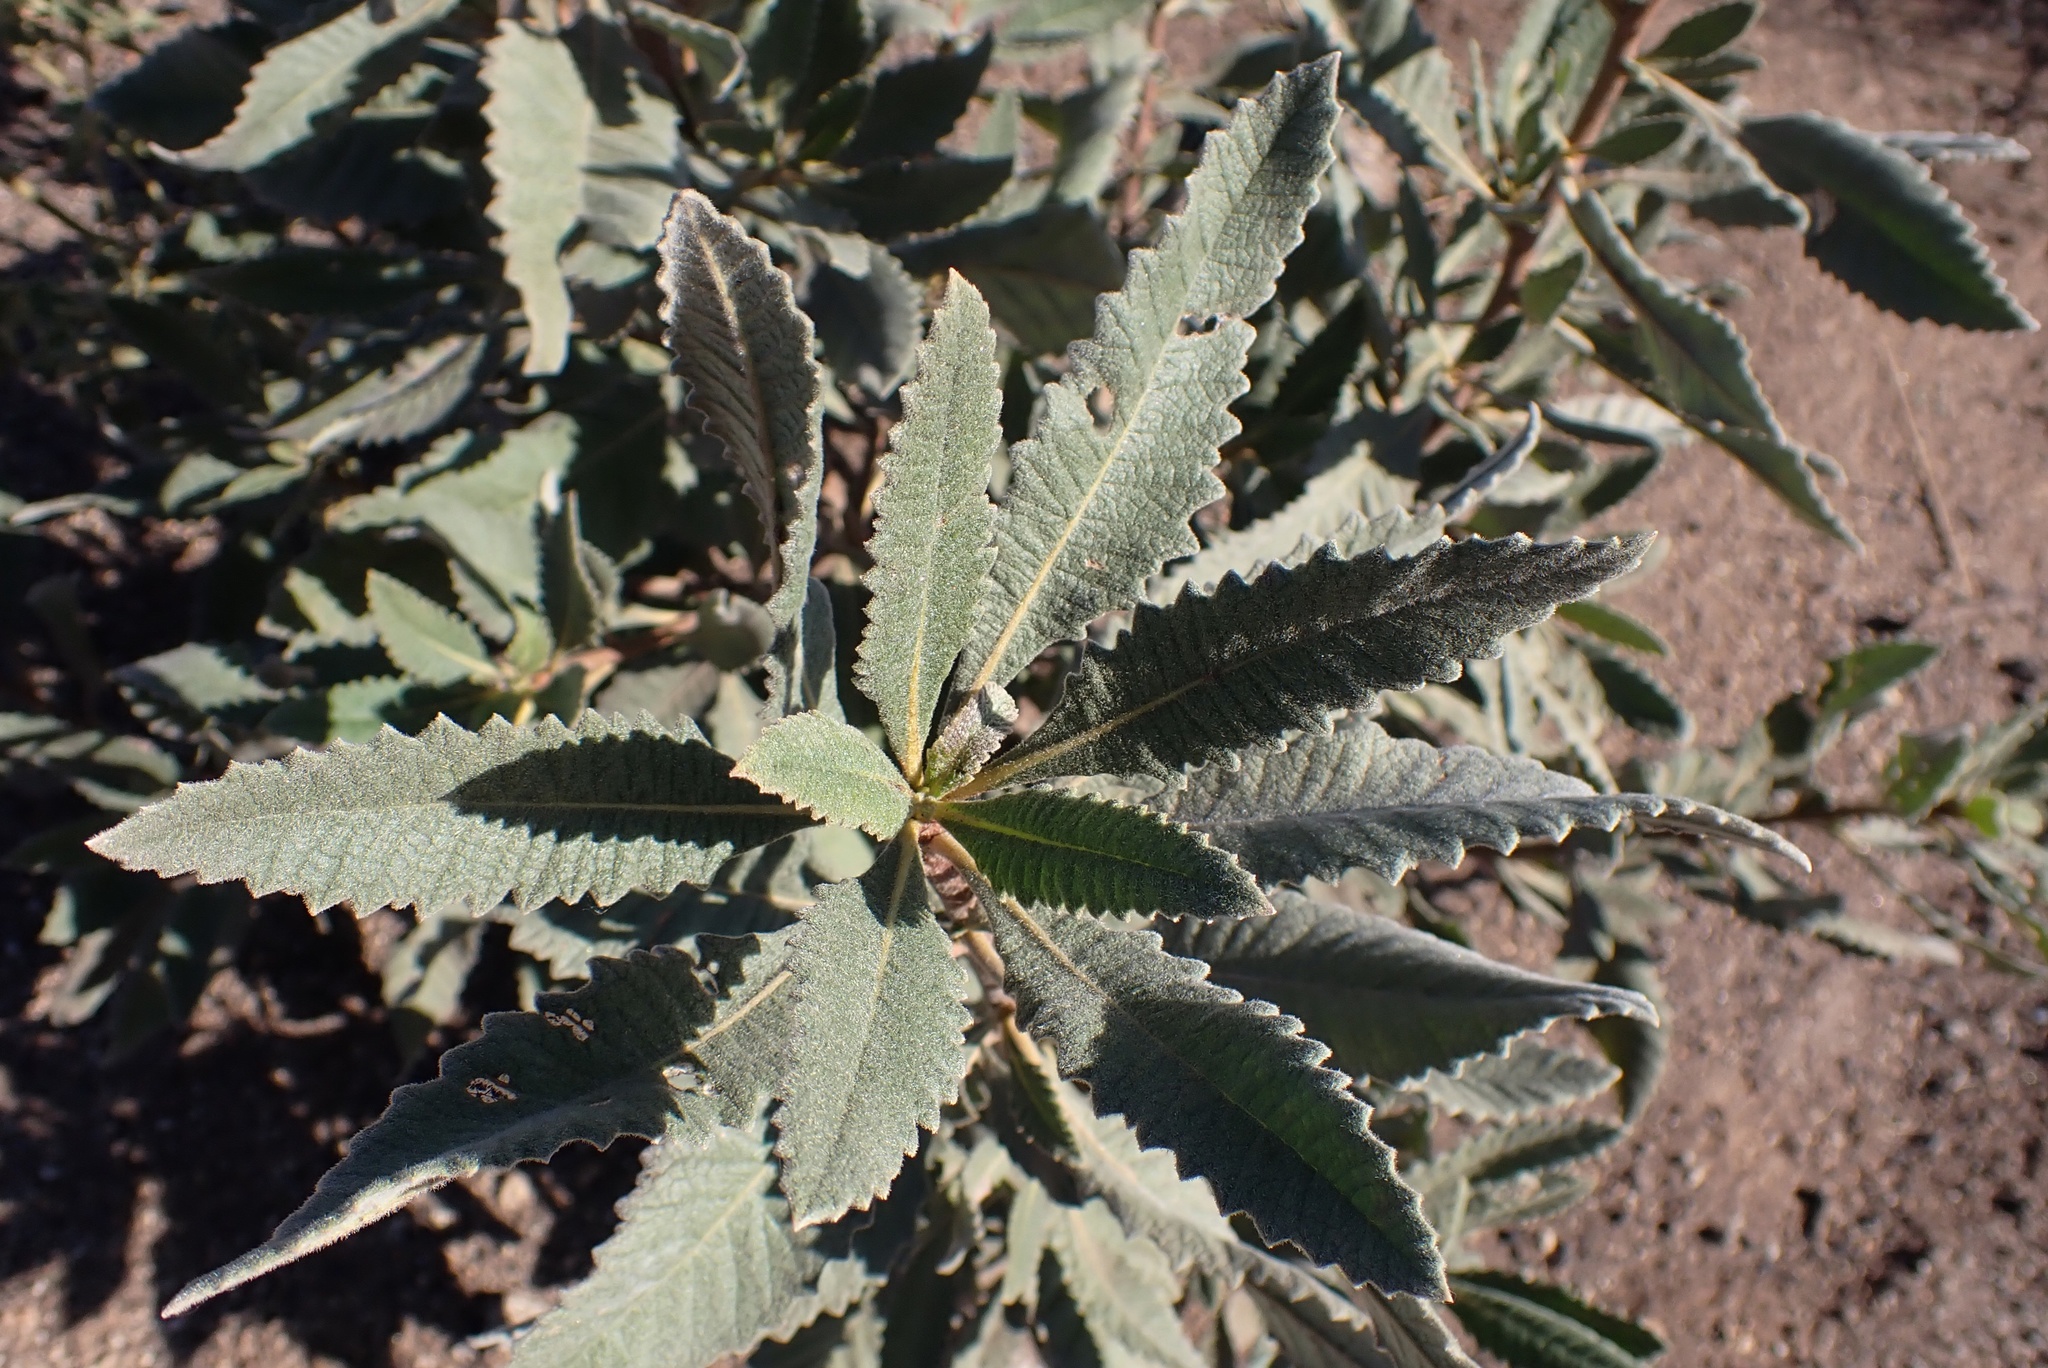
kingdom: Plantae
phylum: Tracheophyta
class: Magnoliopsida
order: Boraginales
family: Namaceae
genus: Eriodictyon
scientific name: Eriodictyon crassifolium
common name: Thick-leaf yerba-santa
